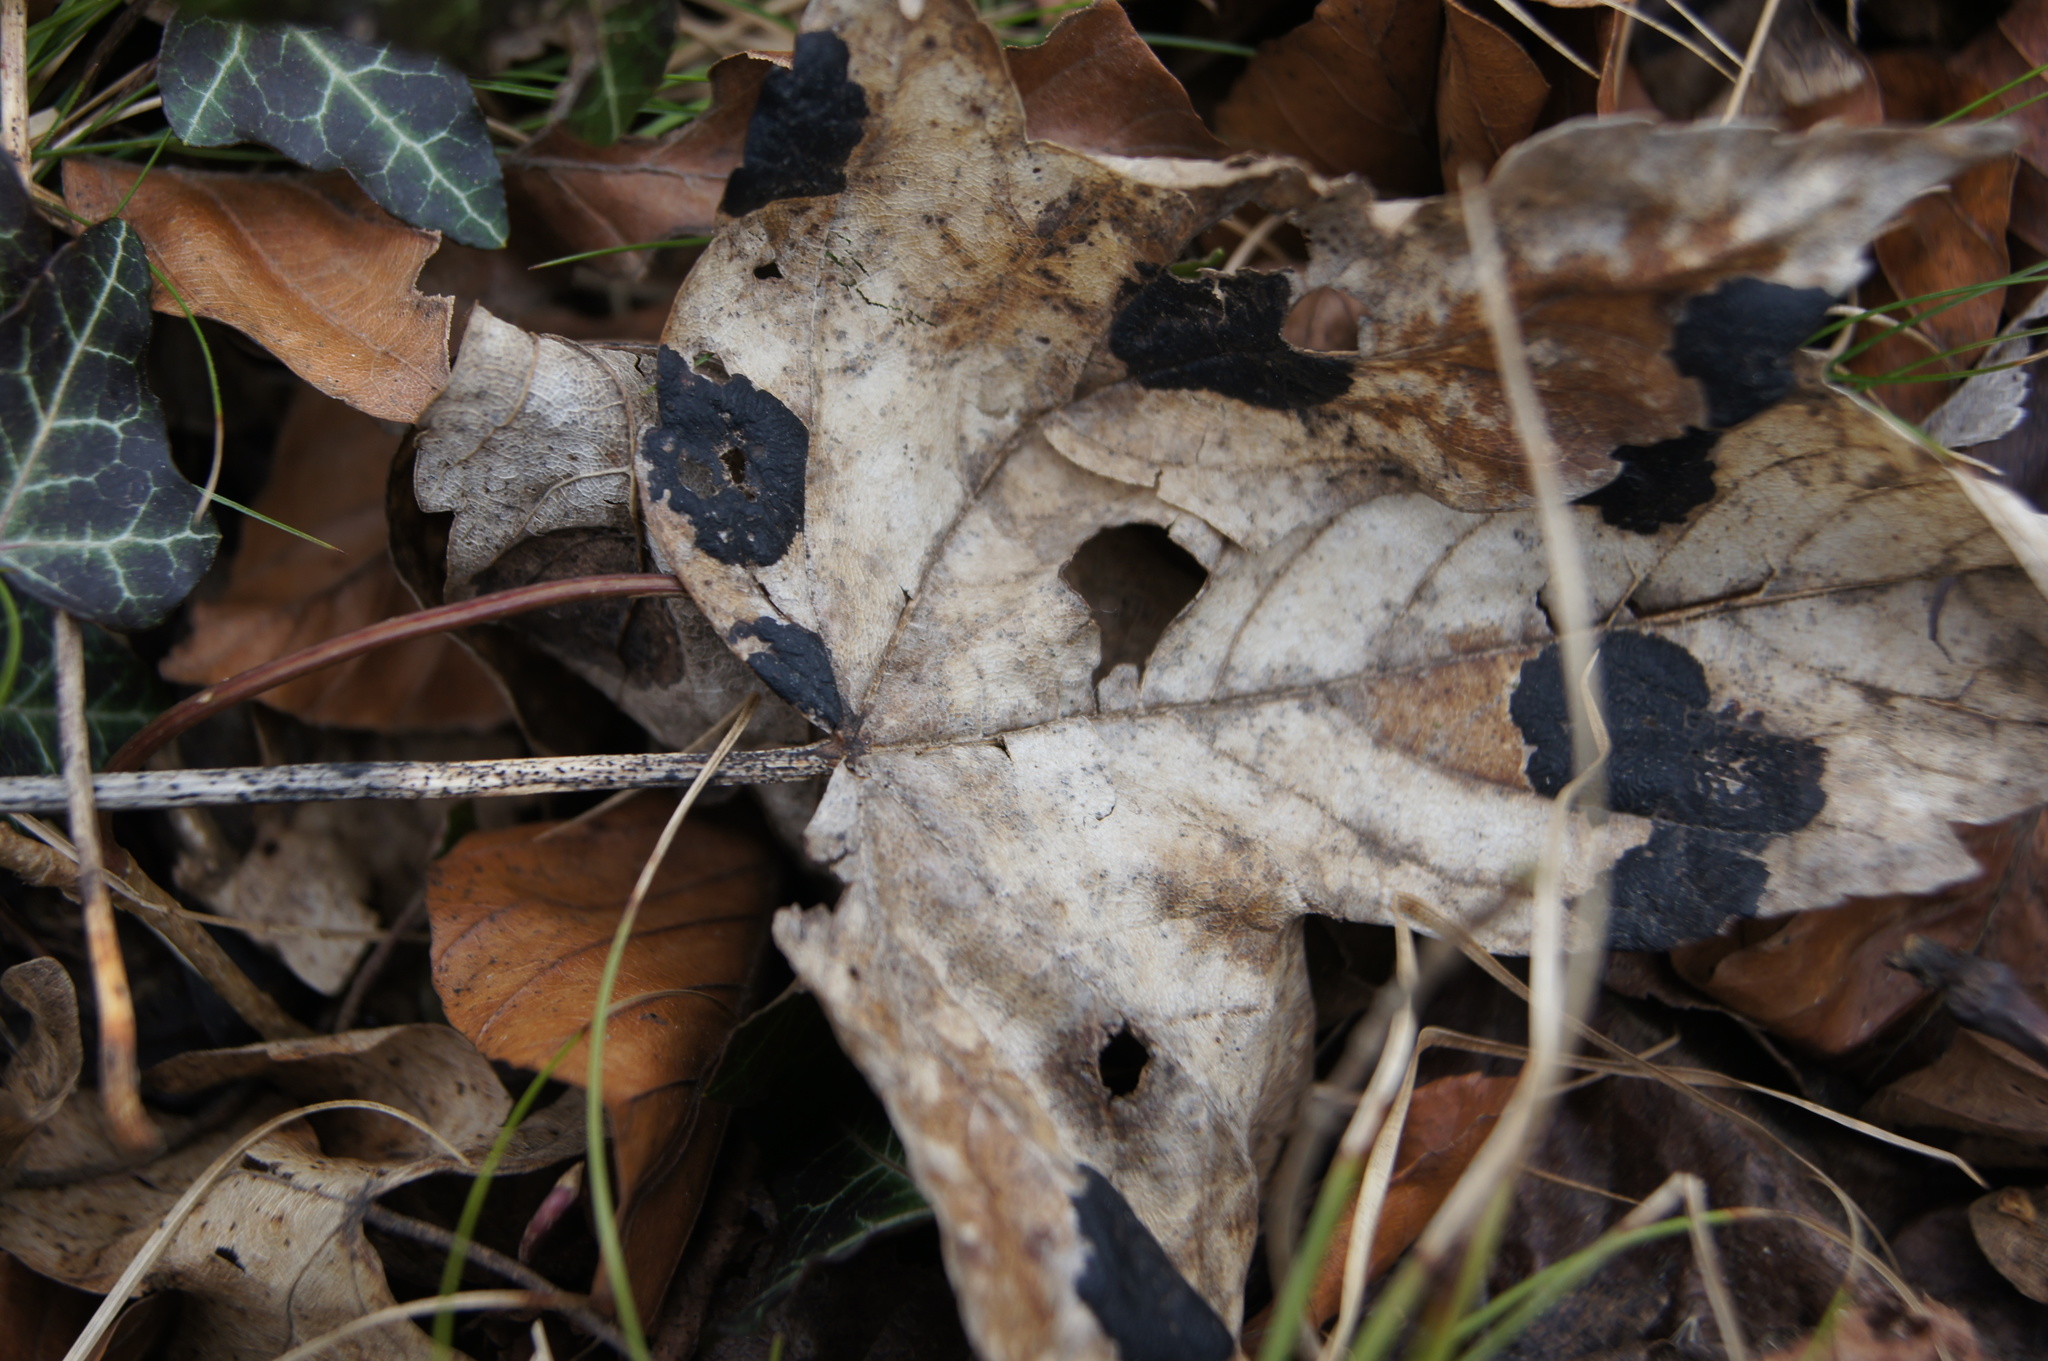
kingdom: Fungi
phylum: Ascomycota
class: Leotiomycetes
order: Rhytismatales
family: Rhytismataceae
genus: Rhytisma
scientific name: Rhytisma acerinum
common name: European tar spot
